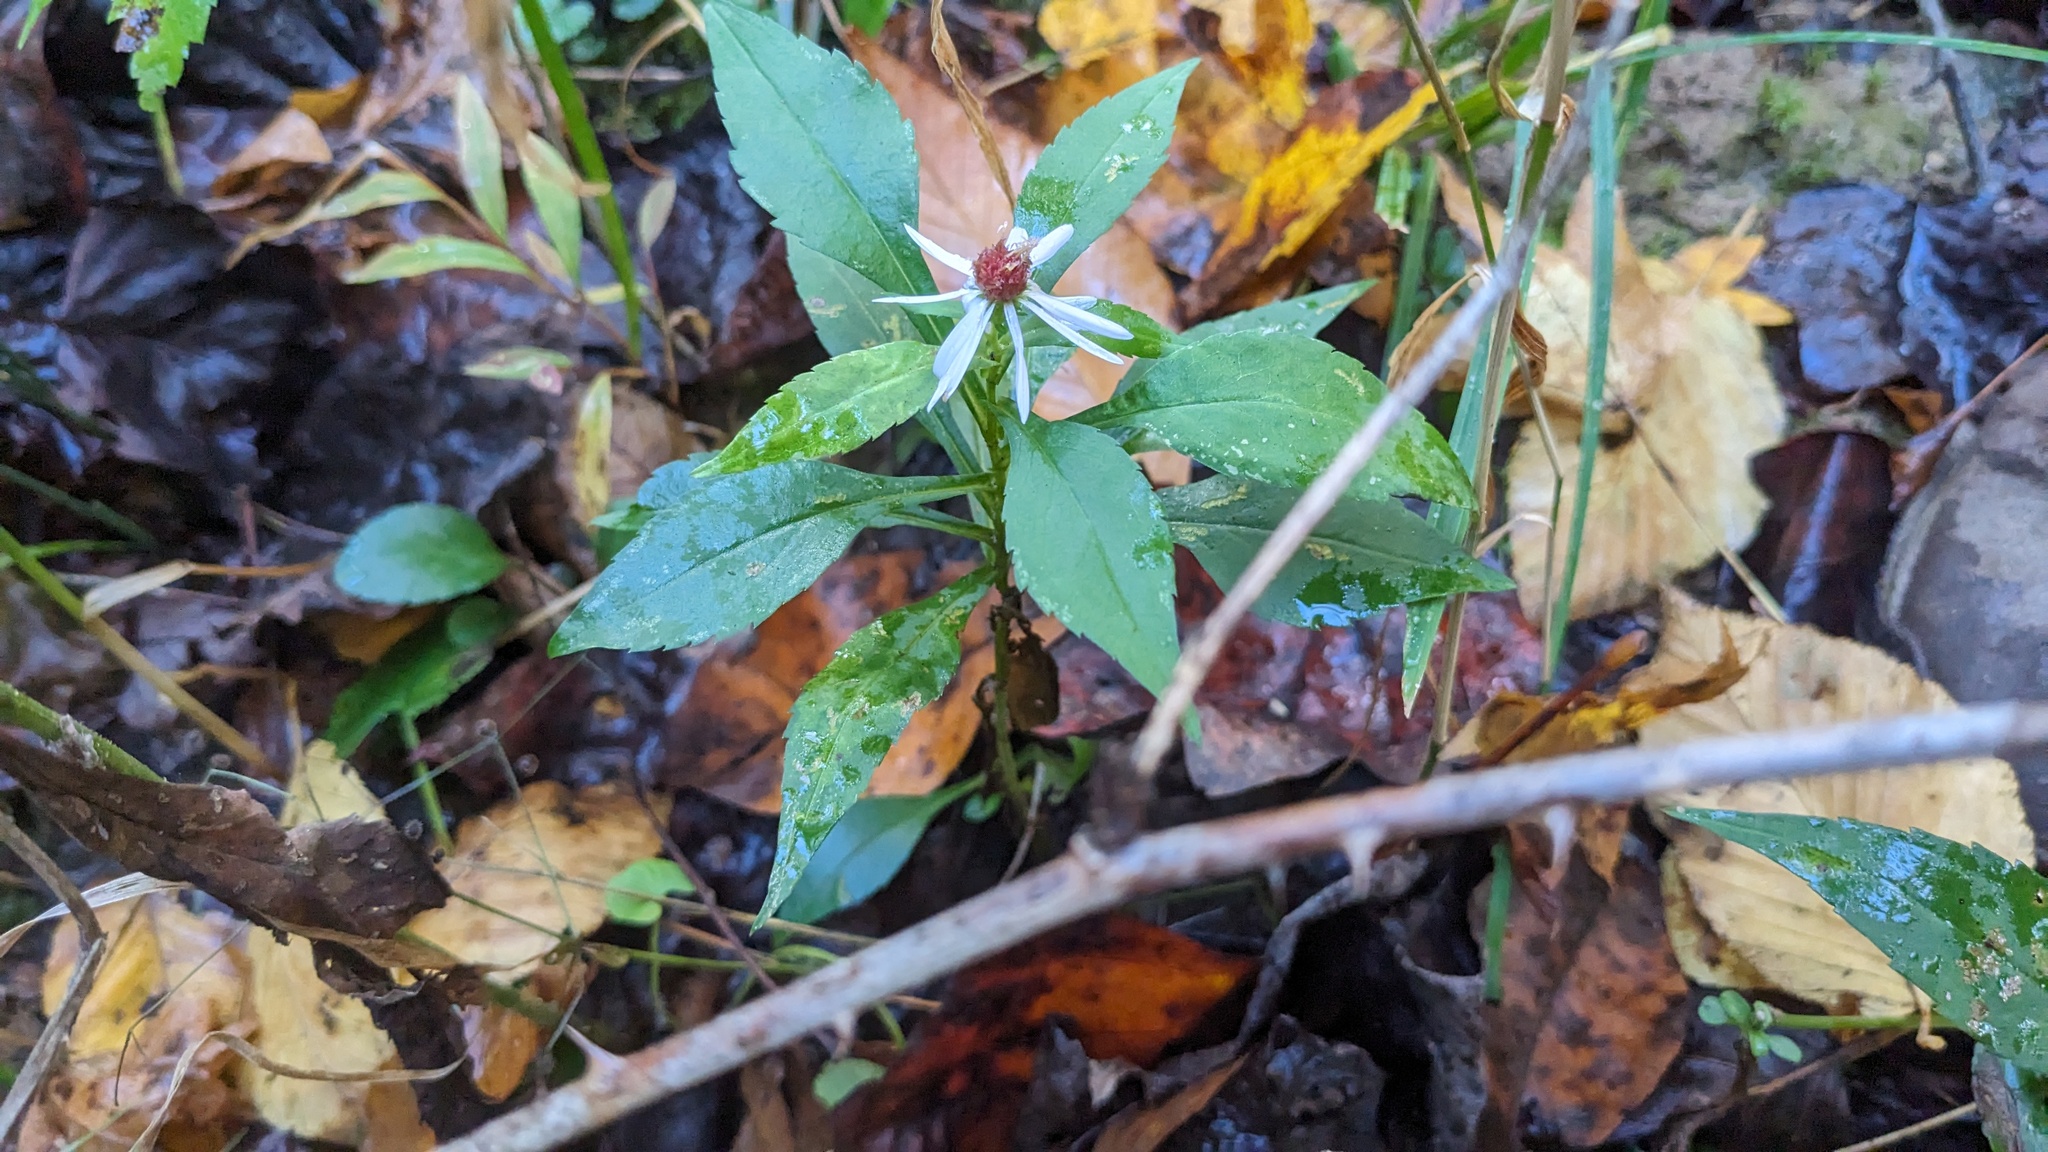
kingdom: Plantae
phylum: Tracheophyta
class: Magnoliopsida
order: Asterales
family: Asteraceae
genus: Symphyotrichum
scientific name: Symphyotrichum prenanthoides
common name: Crooked-stem aster
